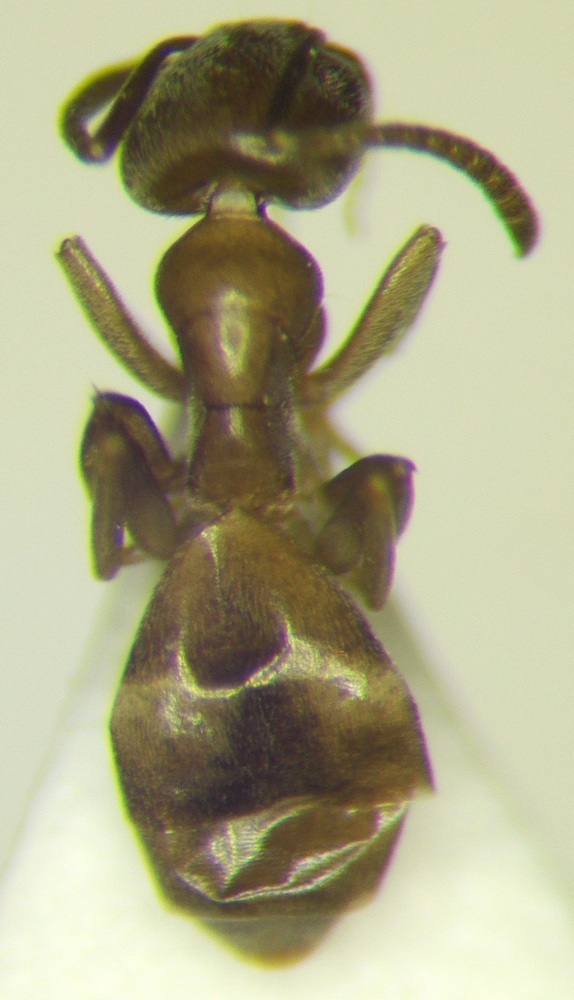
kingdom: Animalia
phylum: Arthropoda
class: Insecta
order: Hymenoptera
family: Formicidae
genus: Tapinoma
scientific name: Tapinoma emeryanum
